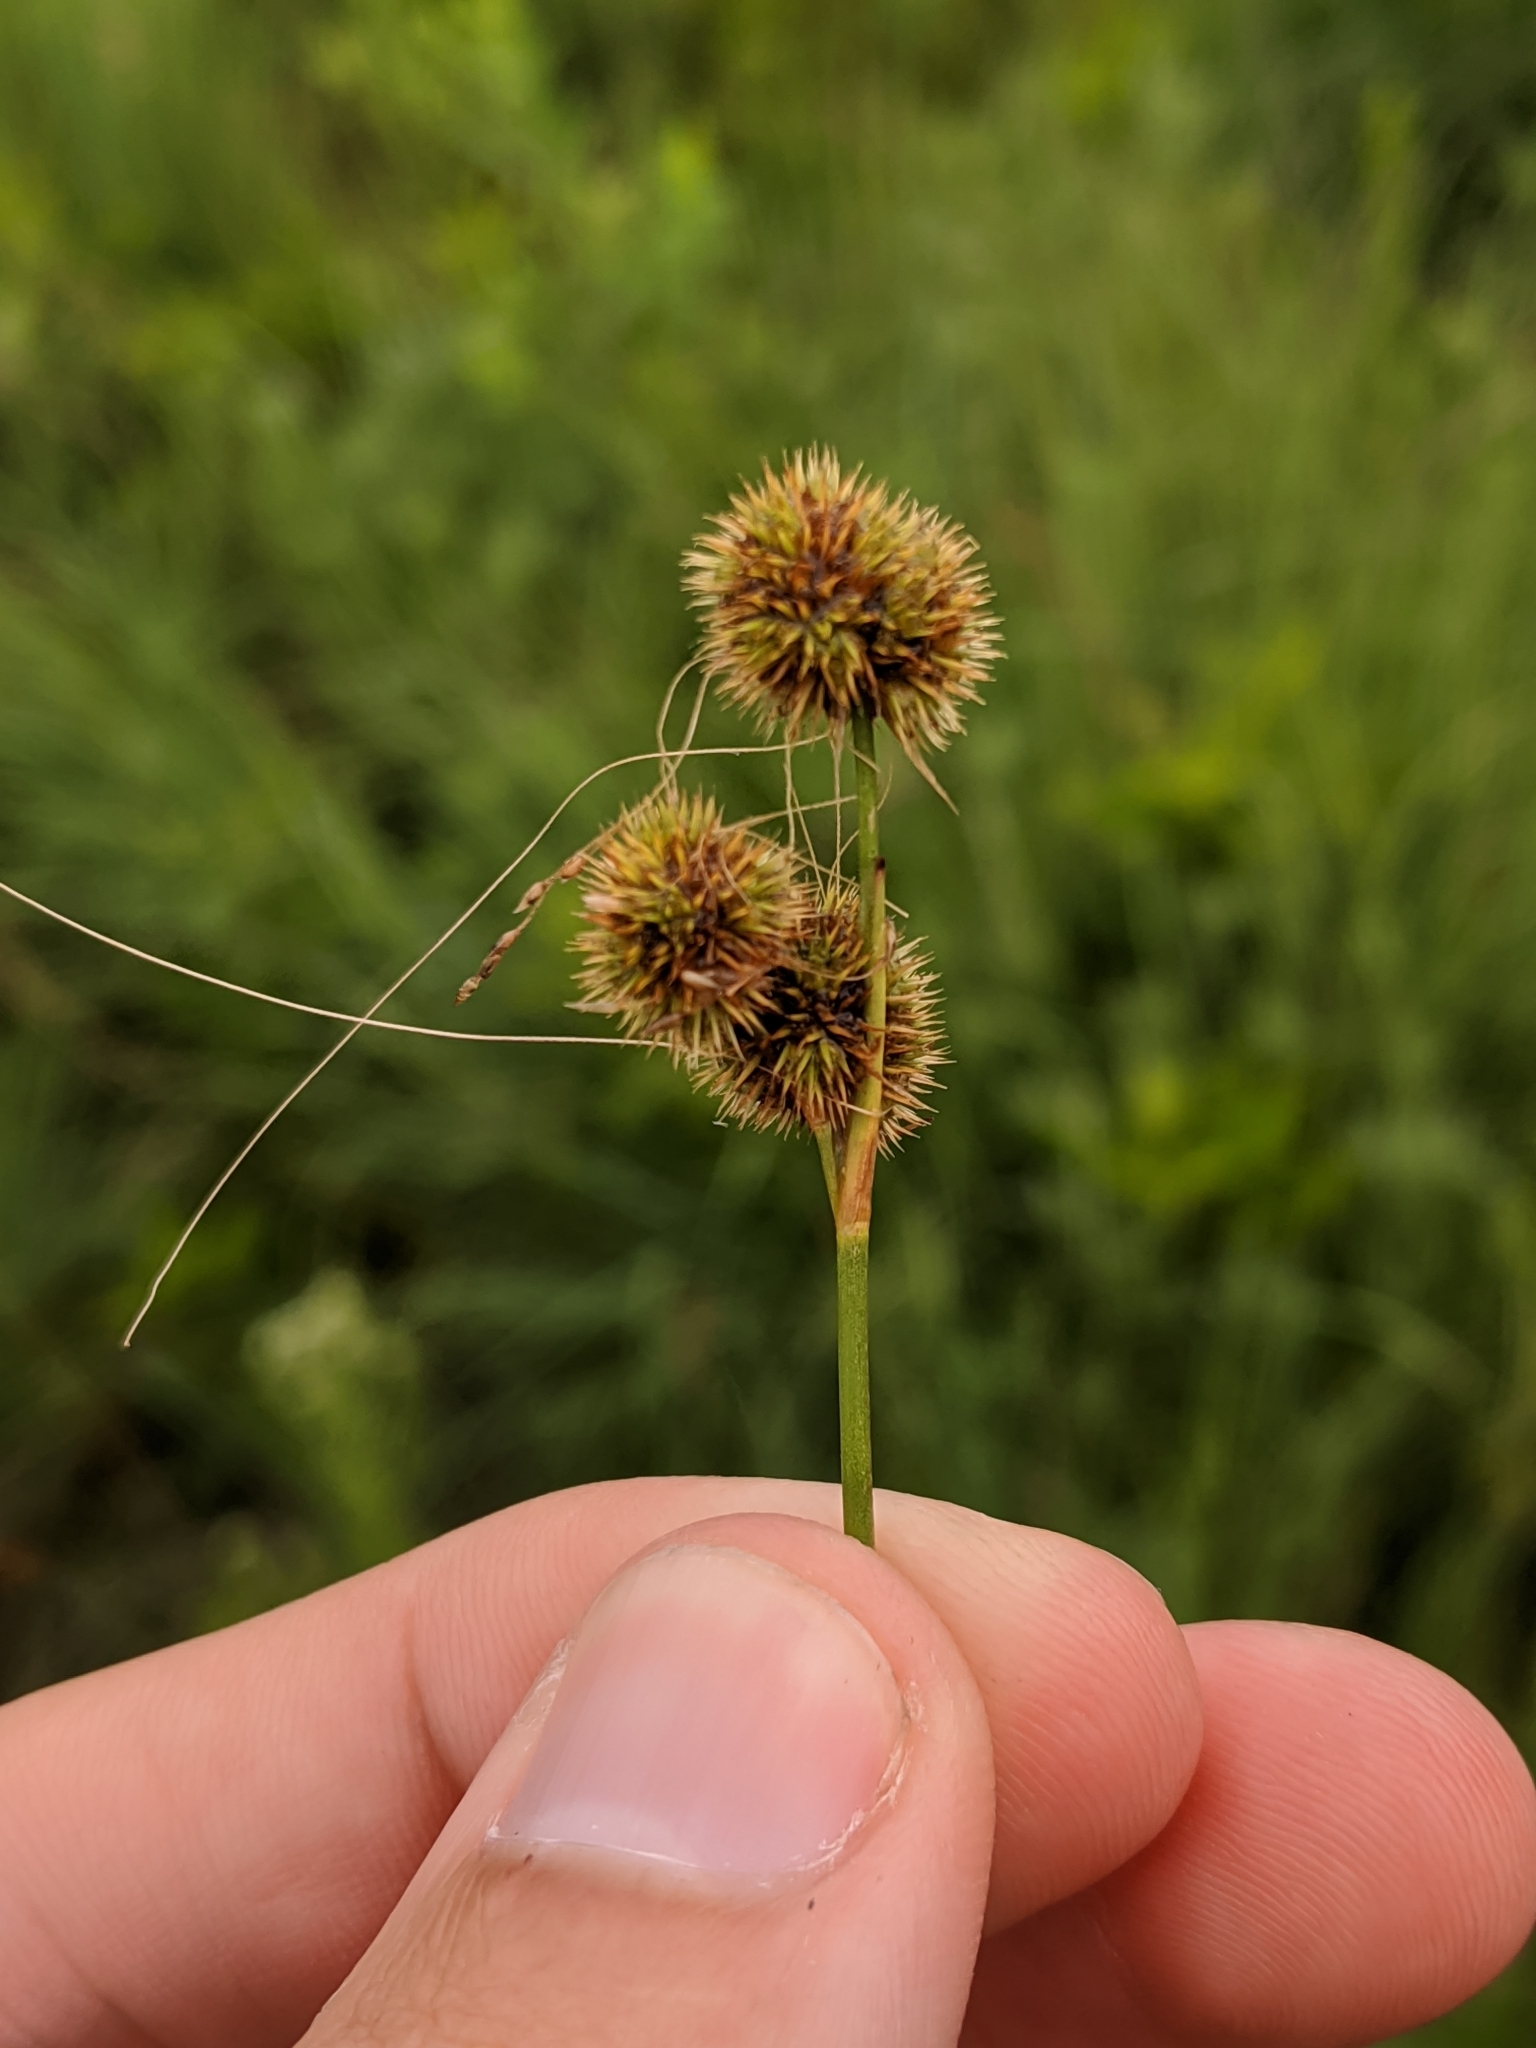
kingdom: Plantae
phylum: Tracheophyta
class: Liliopsida
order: Poales
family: Juncaceae
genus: Juncus
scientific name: Juncus brachycarpus
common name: Shore rush
